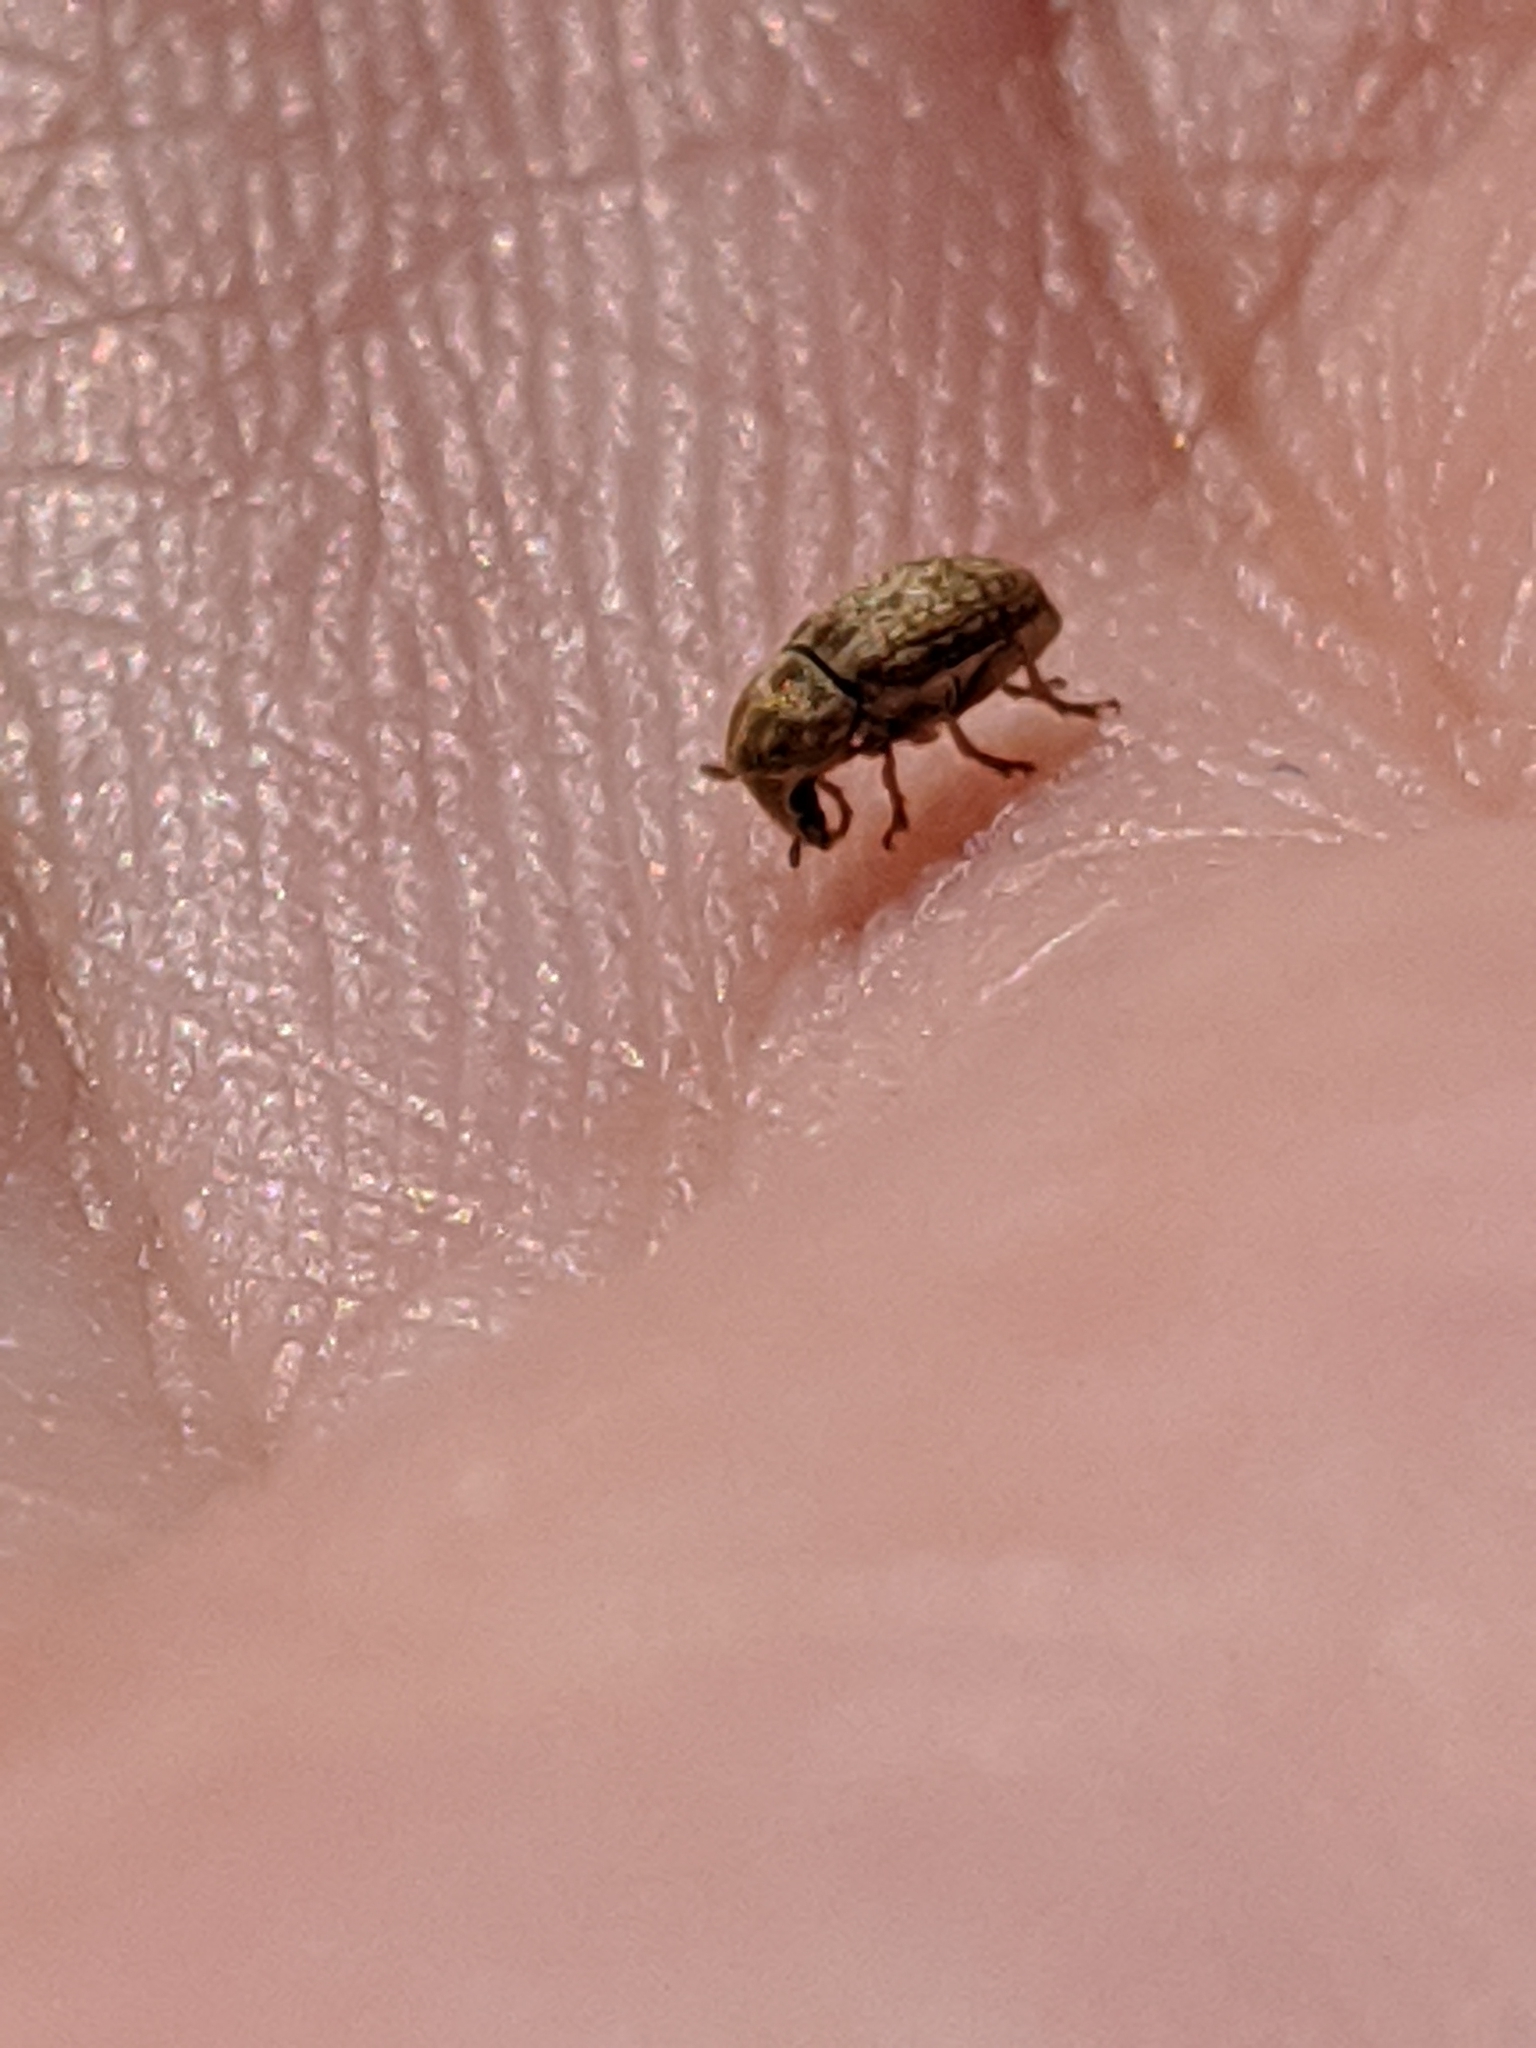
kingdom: Animalia
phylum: Arthropoda
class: Insecta
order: Coleoptera
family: Anthribidae
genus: Trigonorhinus
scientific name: Trigonorhinus limbatus
